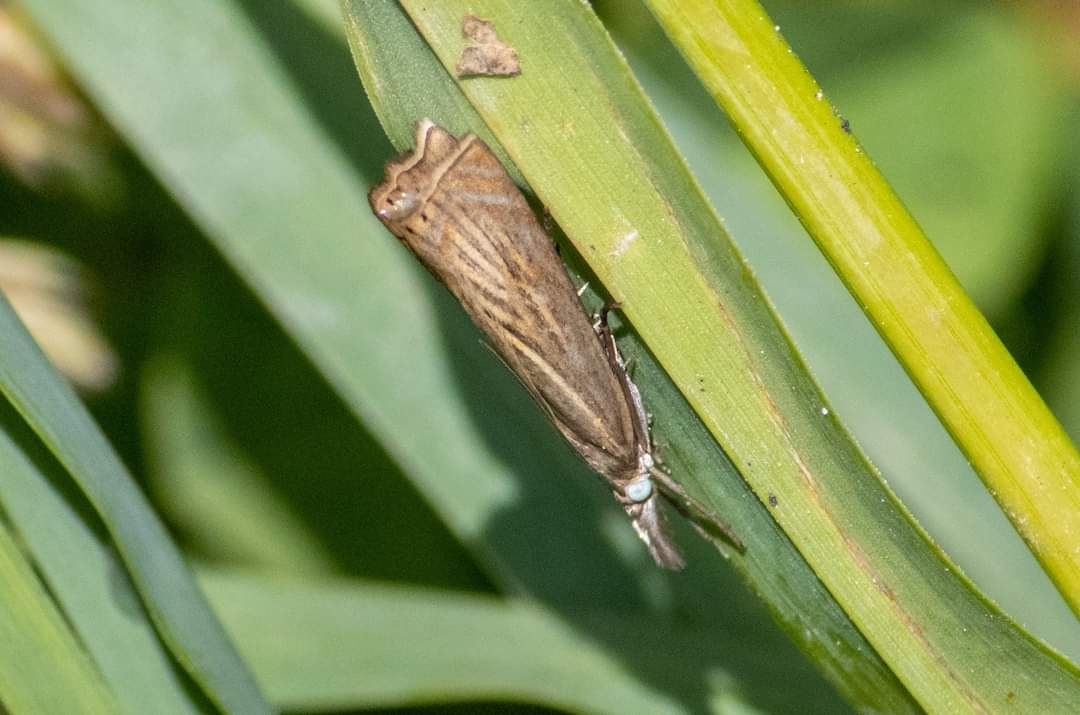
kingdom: Animalia
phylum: Arthropoda
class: Insecta
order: Lepidoptera
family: Crambidae
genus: Chrysoteuchia
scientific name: Chrysoteuchia culmella
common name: Garden grass-veneer
